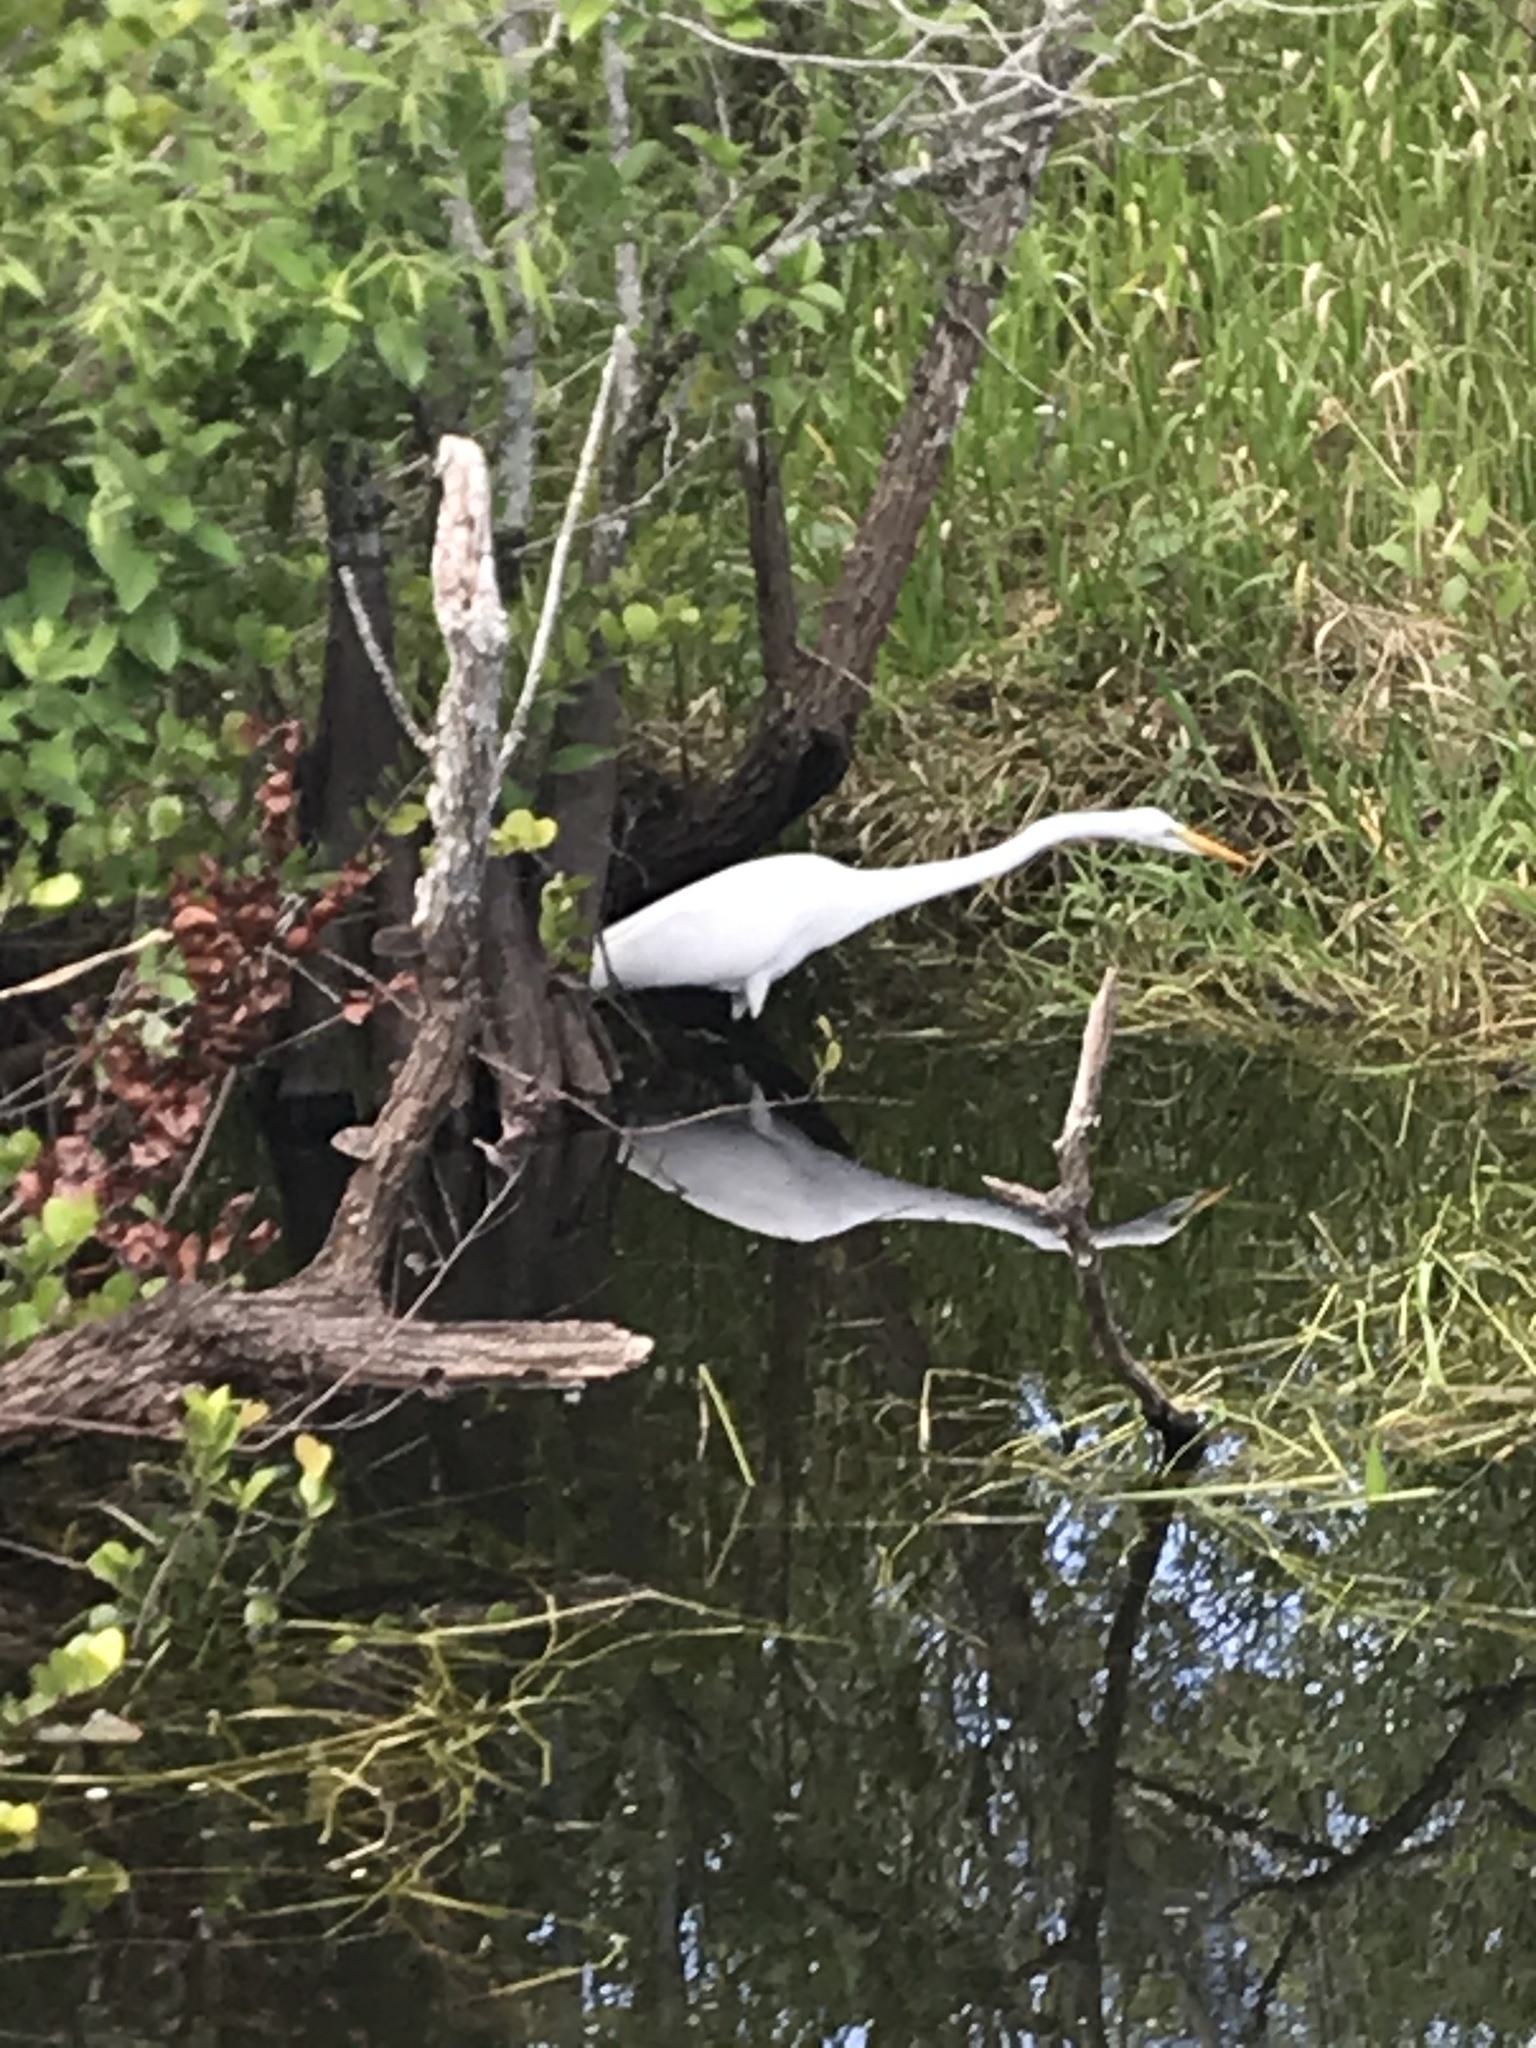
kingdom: Animalia
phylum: Chordata
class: Aves
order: Pelecaniformes
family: Ardeidae
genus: Ardea
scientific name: Ardea alba
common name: Great egret
